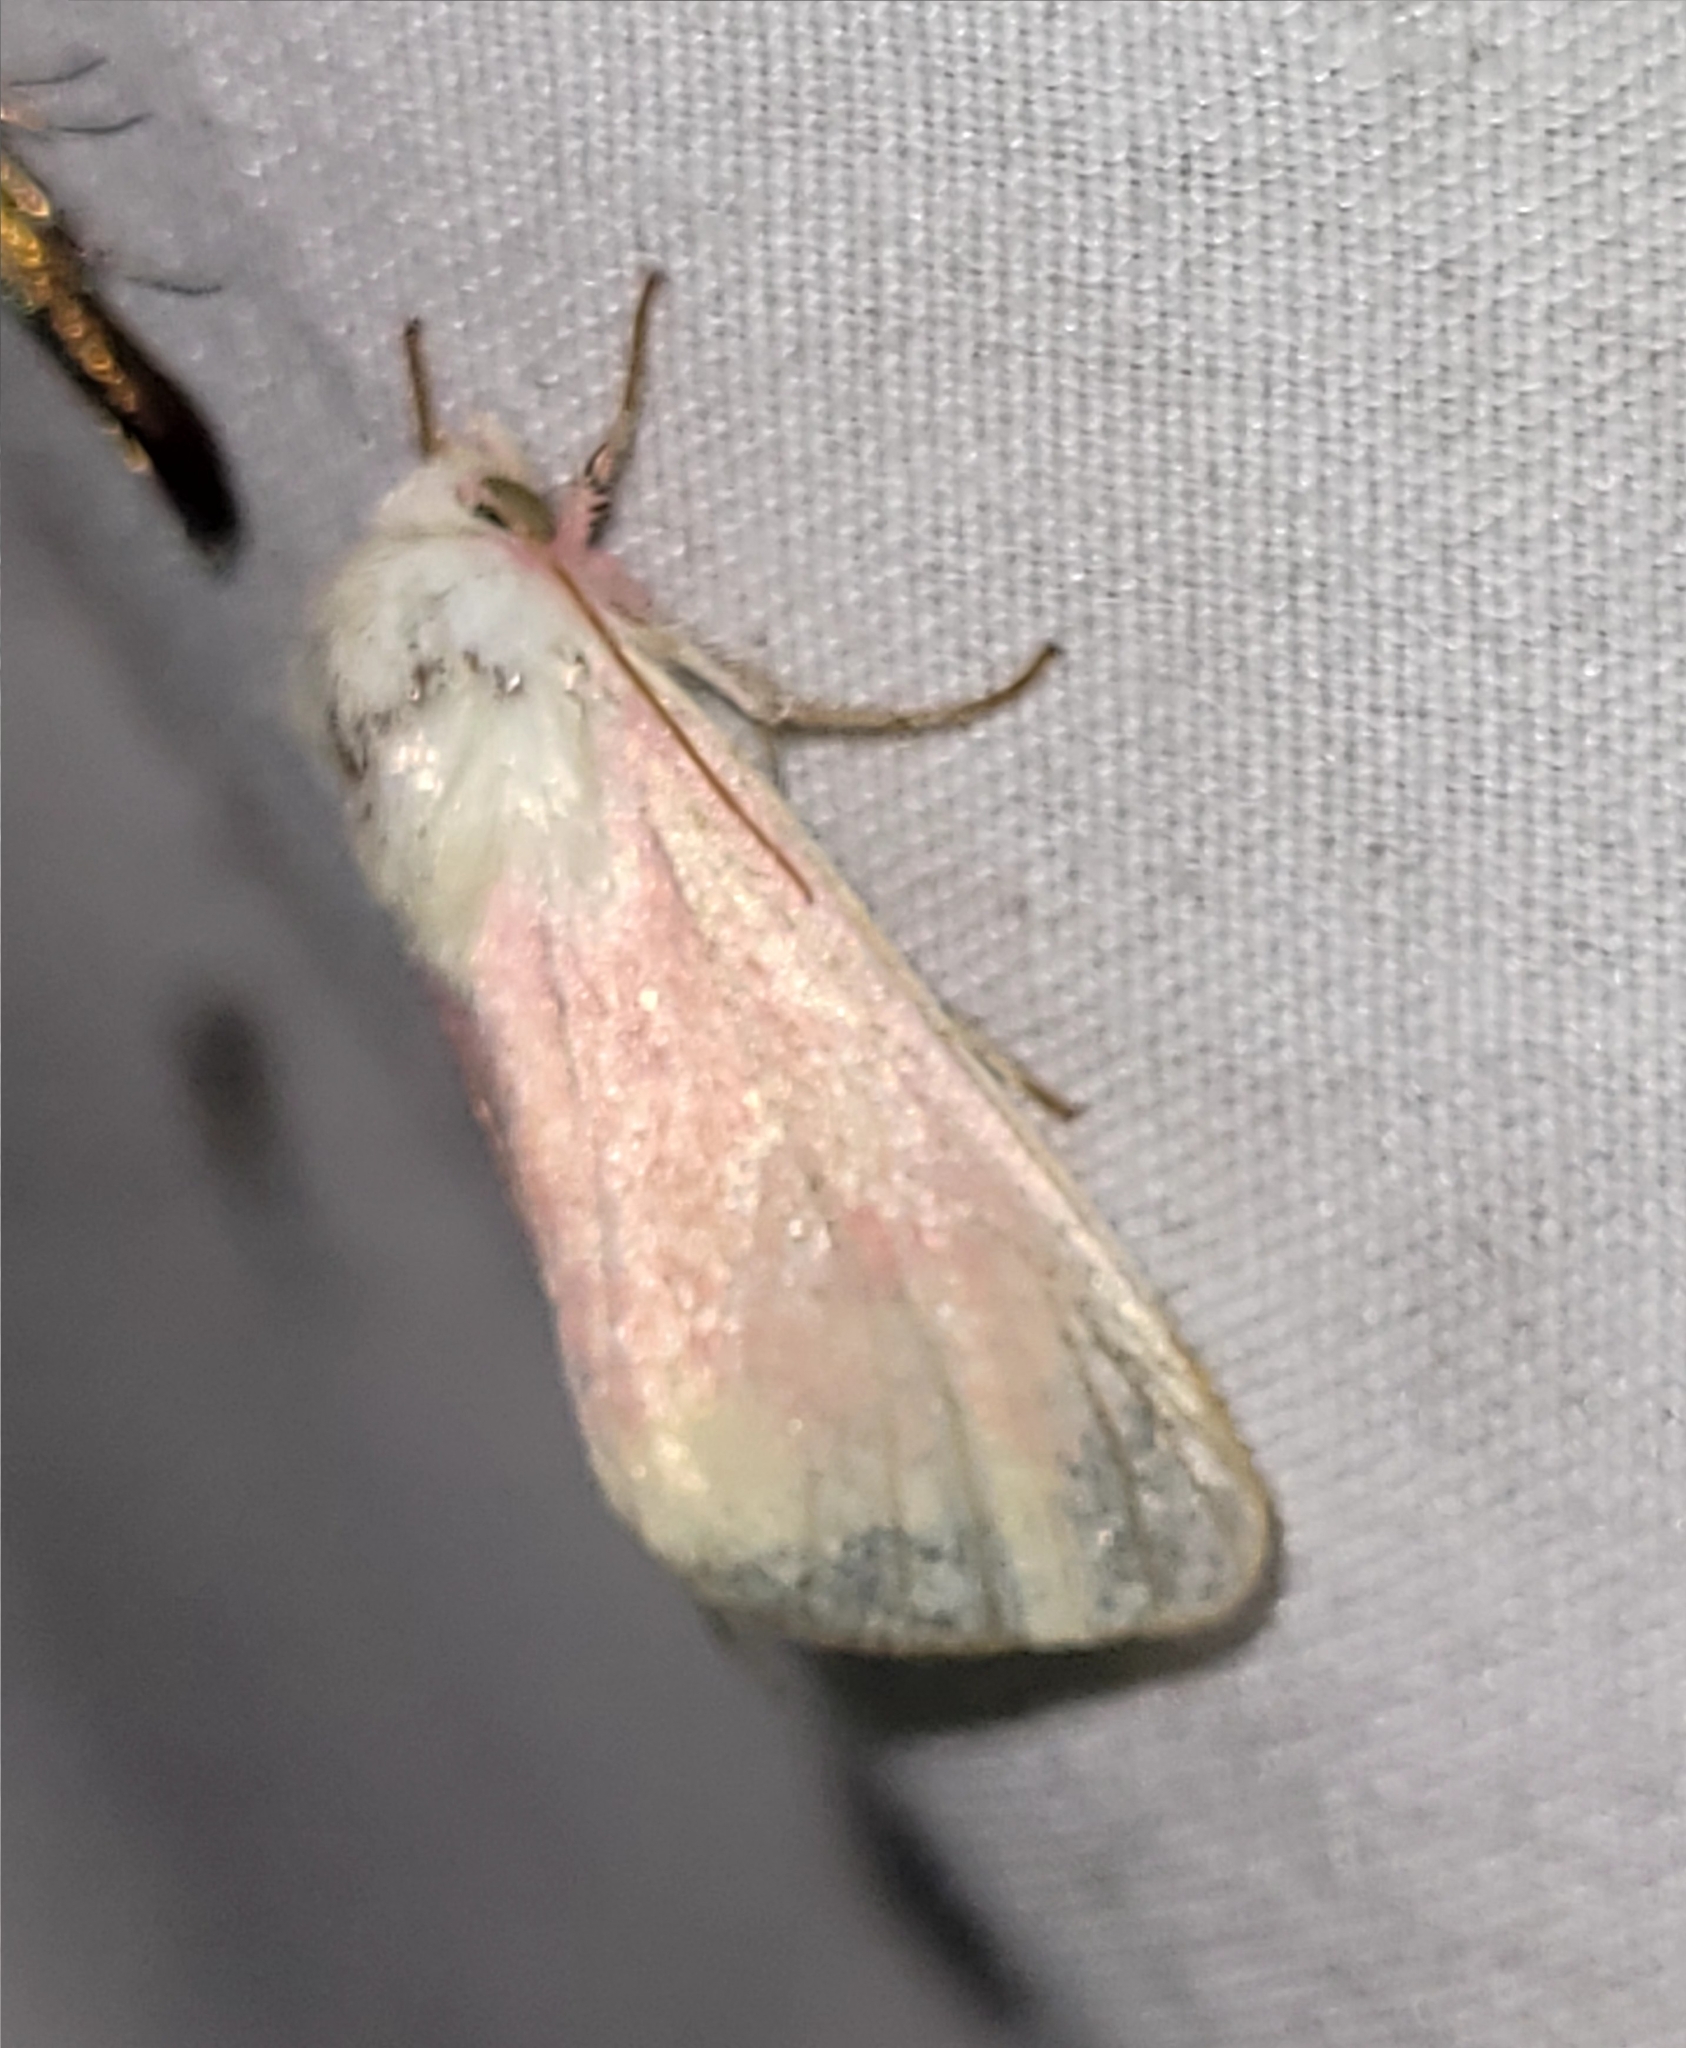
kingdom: Animalia
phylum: Arthropoda
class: Insecta
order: Lepidoptera
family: Noctuidae
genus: Schinia
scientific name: Schinia florida
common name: Primrose moth
